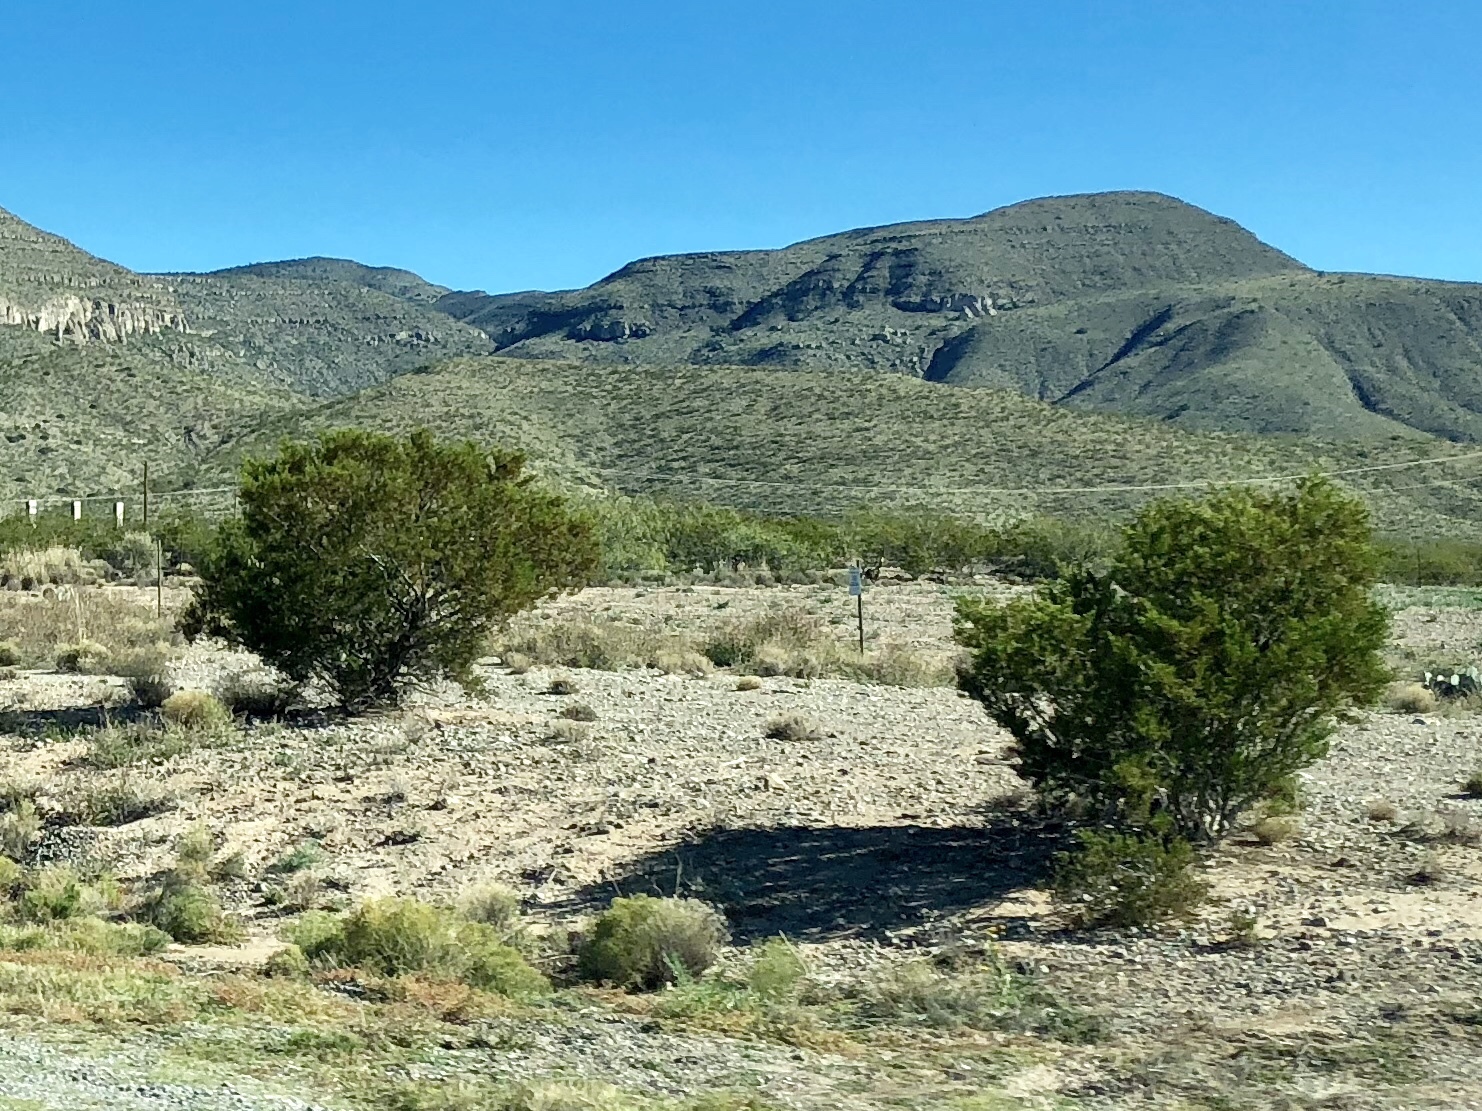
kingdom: Plantae
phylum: Tracheophyta
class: Magnoliopsida
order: Zygophyllales
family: Zygophyllaceae
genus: Larrea
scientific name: Larrea tridentata
